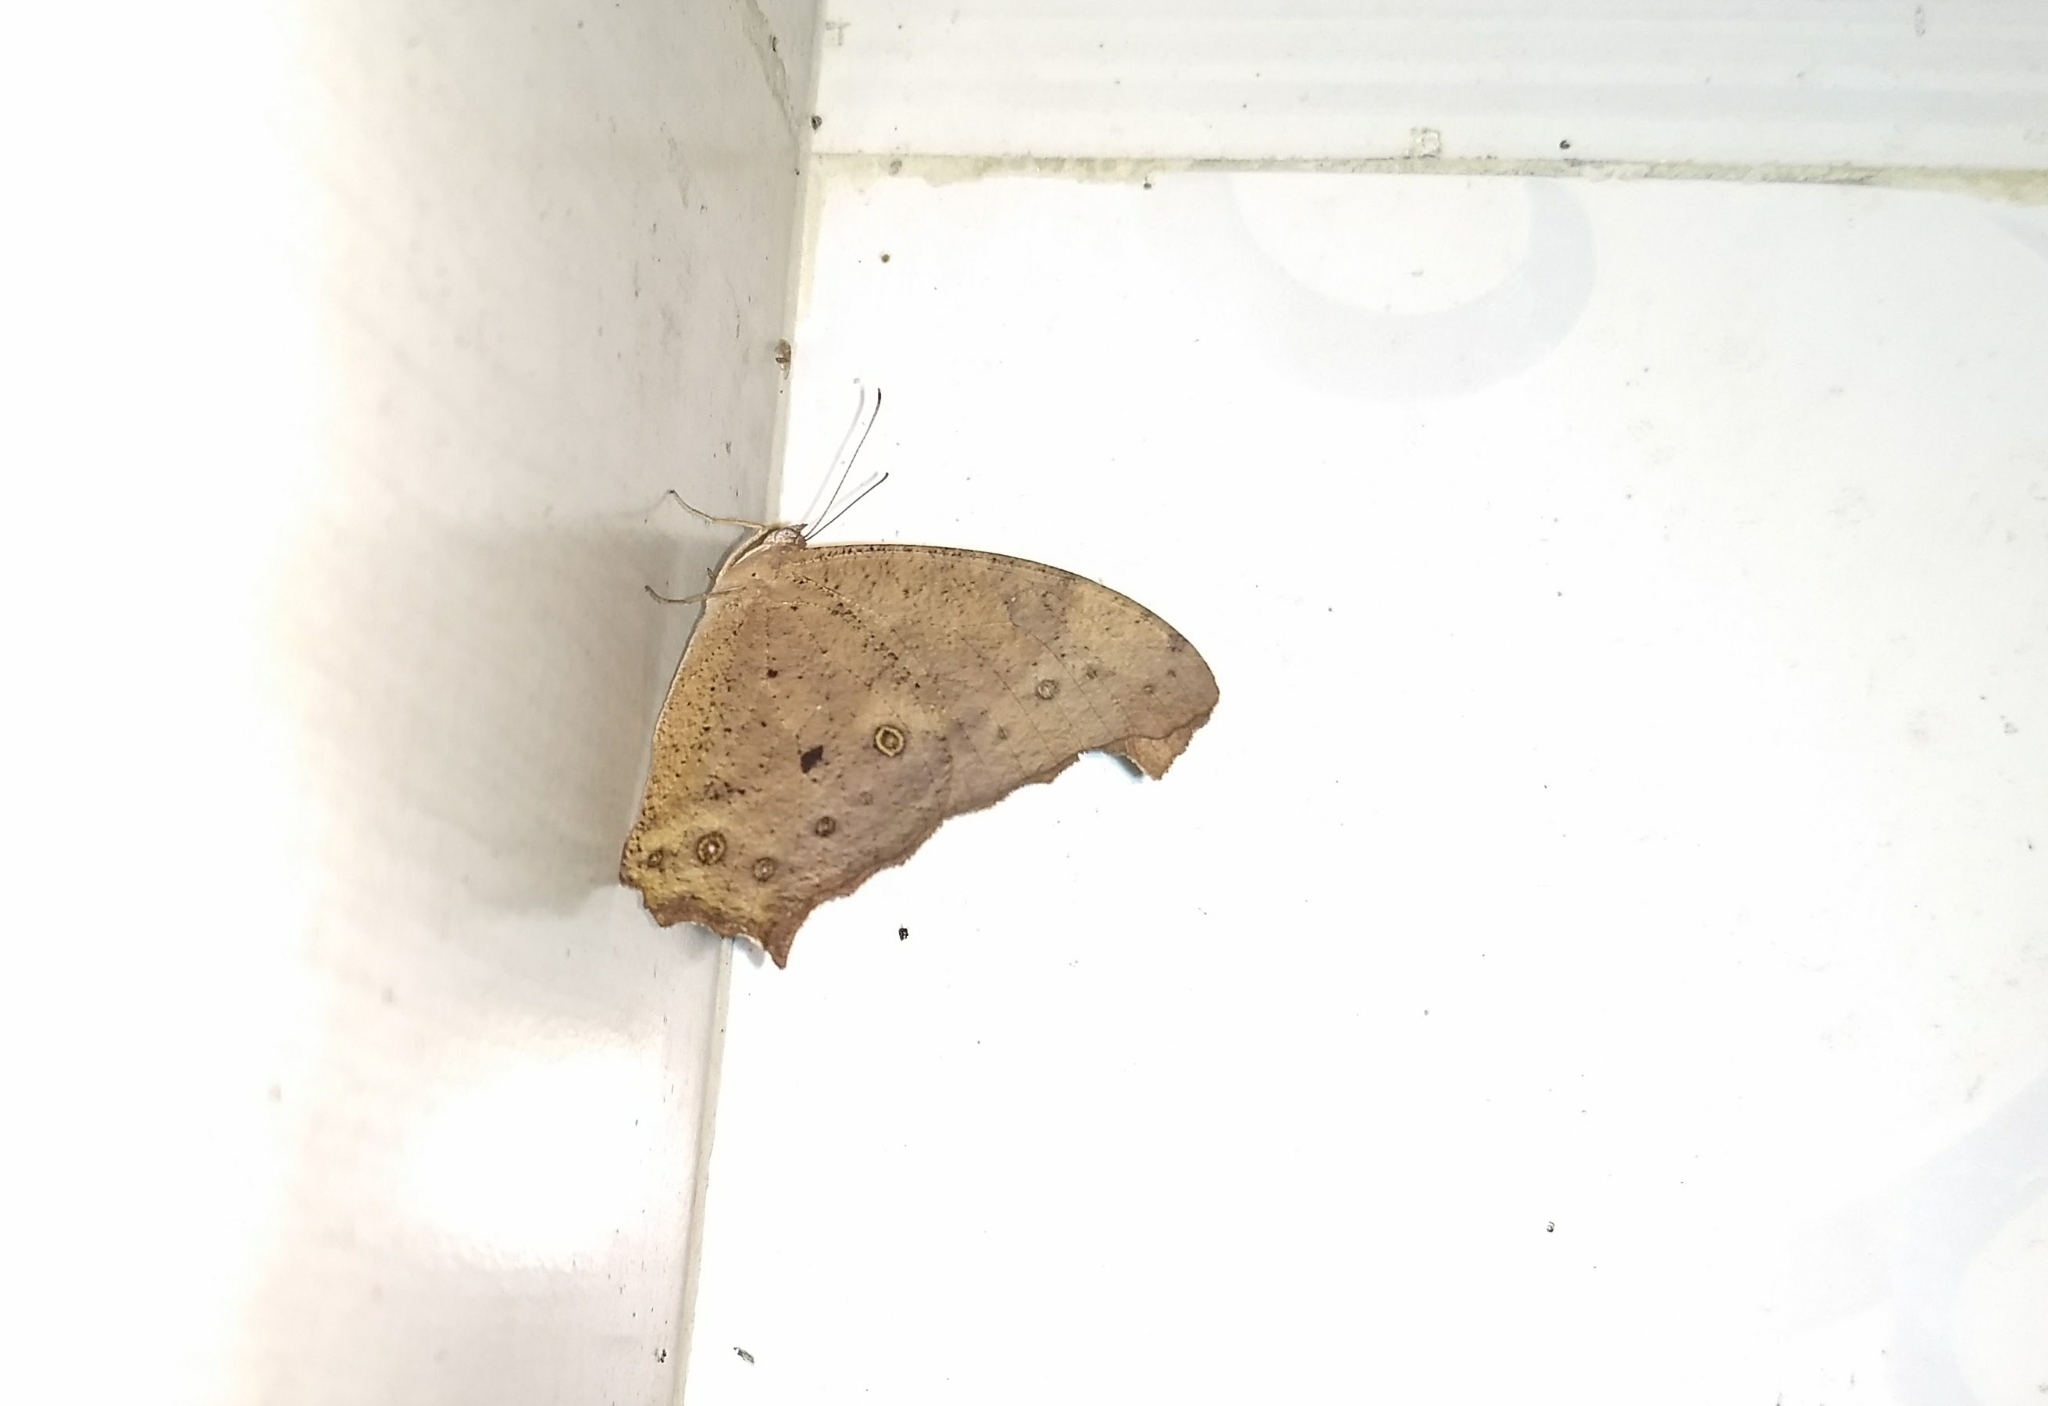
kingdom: Animalia
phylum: Arthropoda
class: Insecta
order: Lepidoptera
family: Nymphalidae
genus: Melanitis
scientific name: Melanitis leda
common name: Twilight brown
